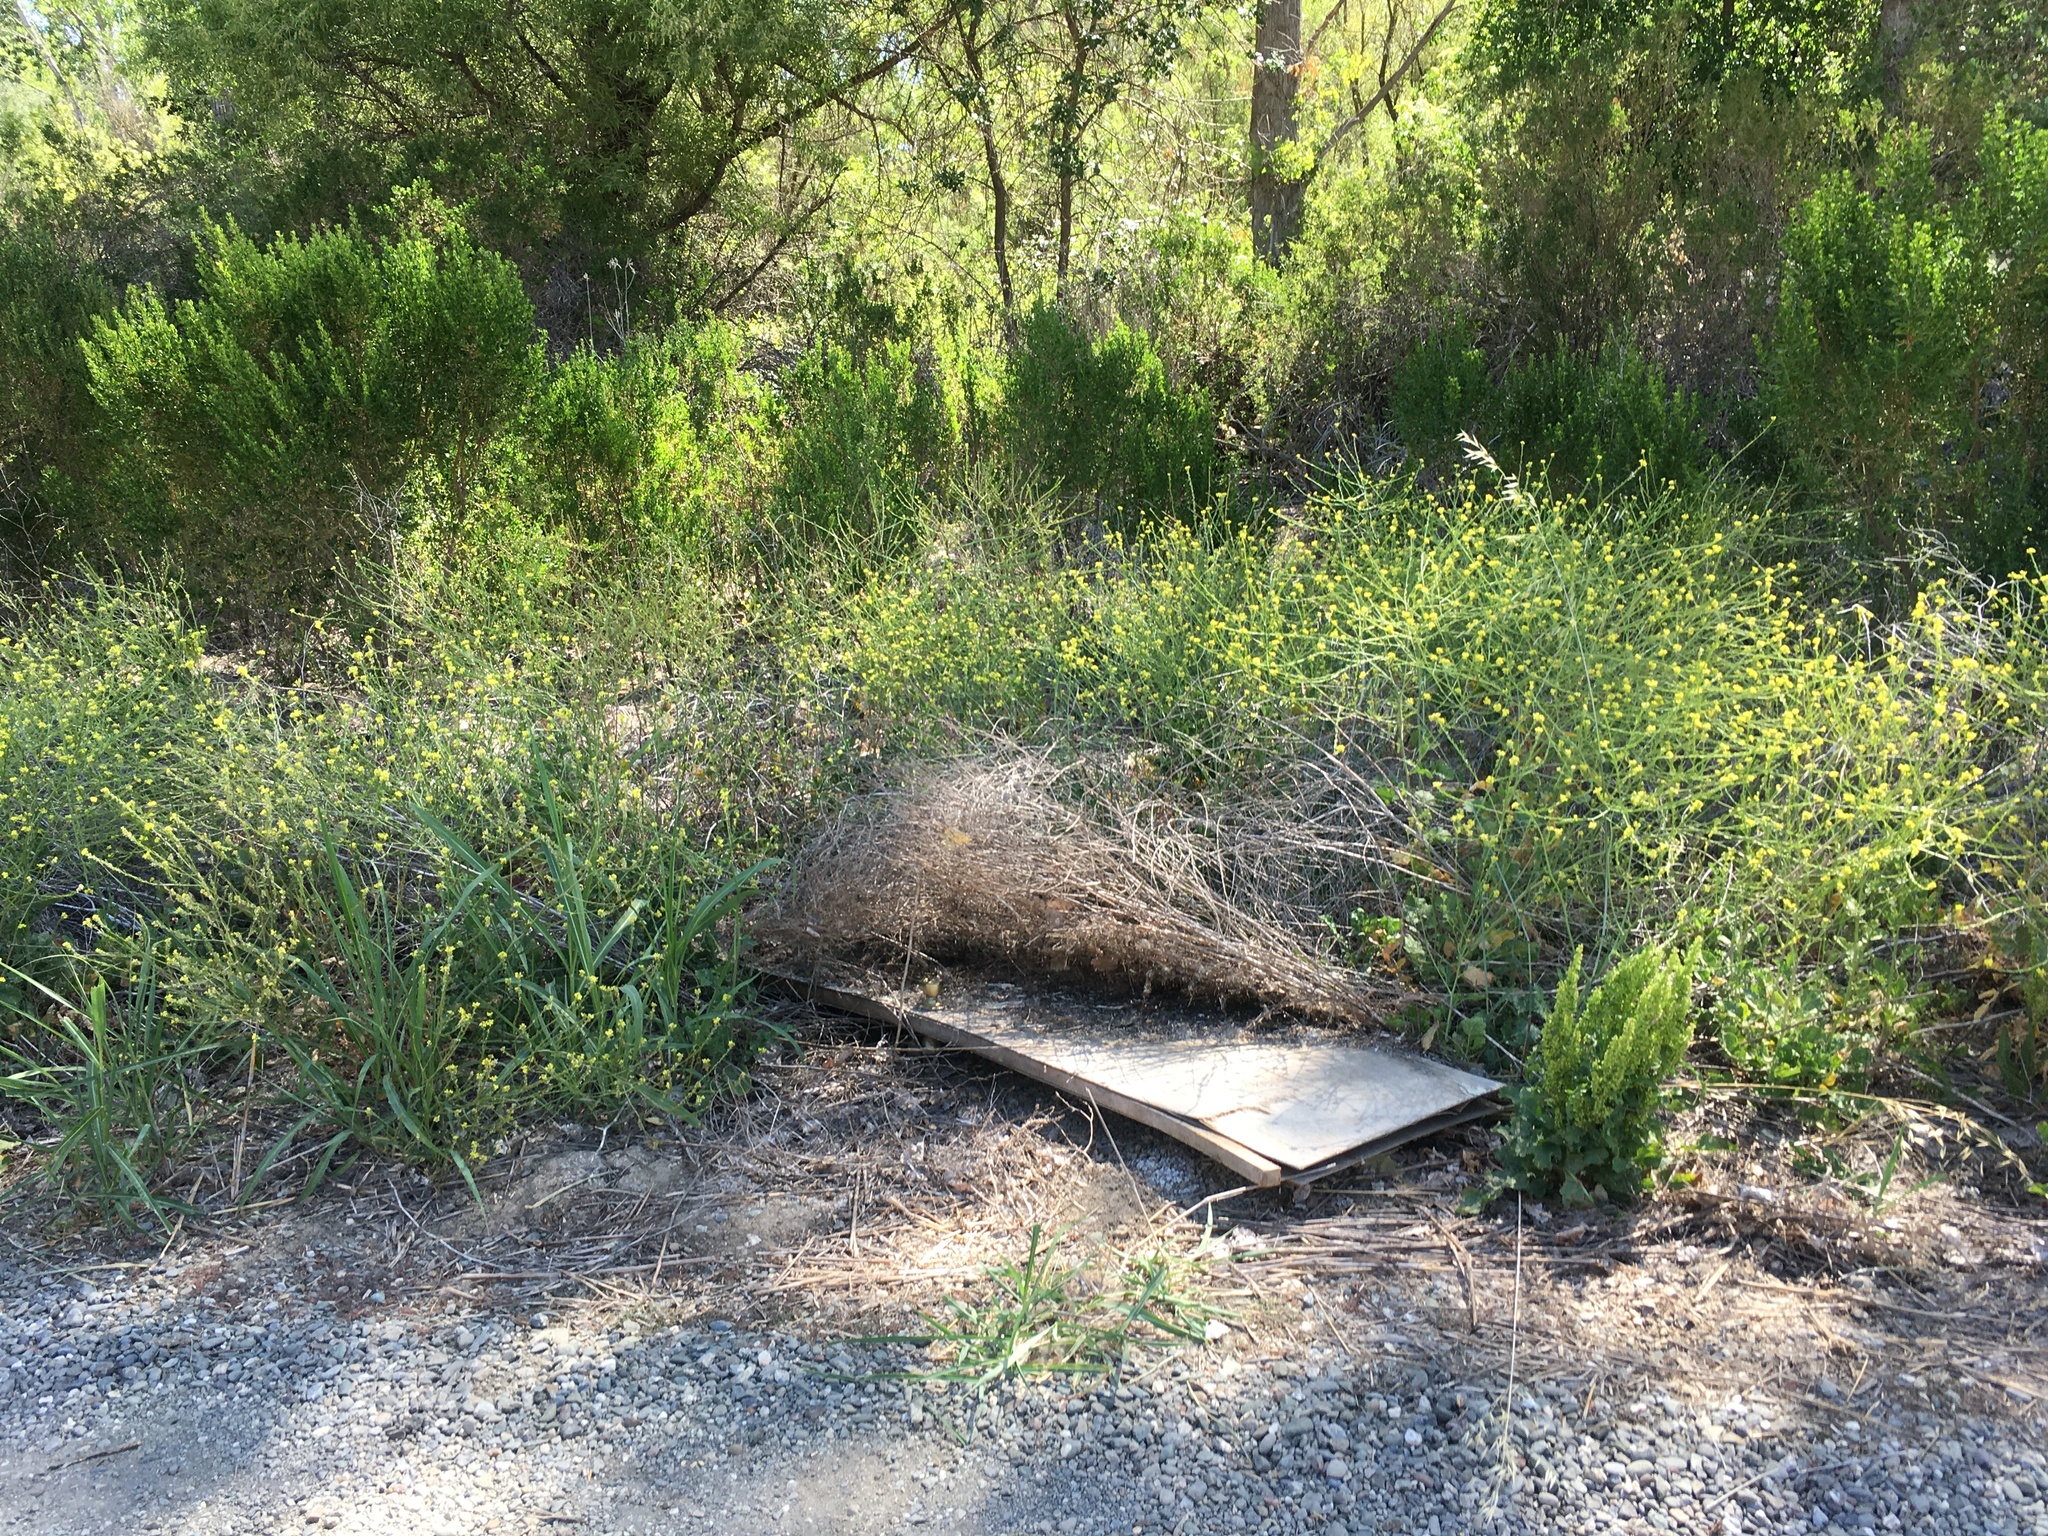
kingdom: Animalia
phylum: Chordata
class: Squamata
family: Viperidae
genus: Crotalus
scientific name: Crotalus oreganus
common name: Abyssus
